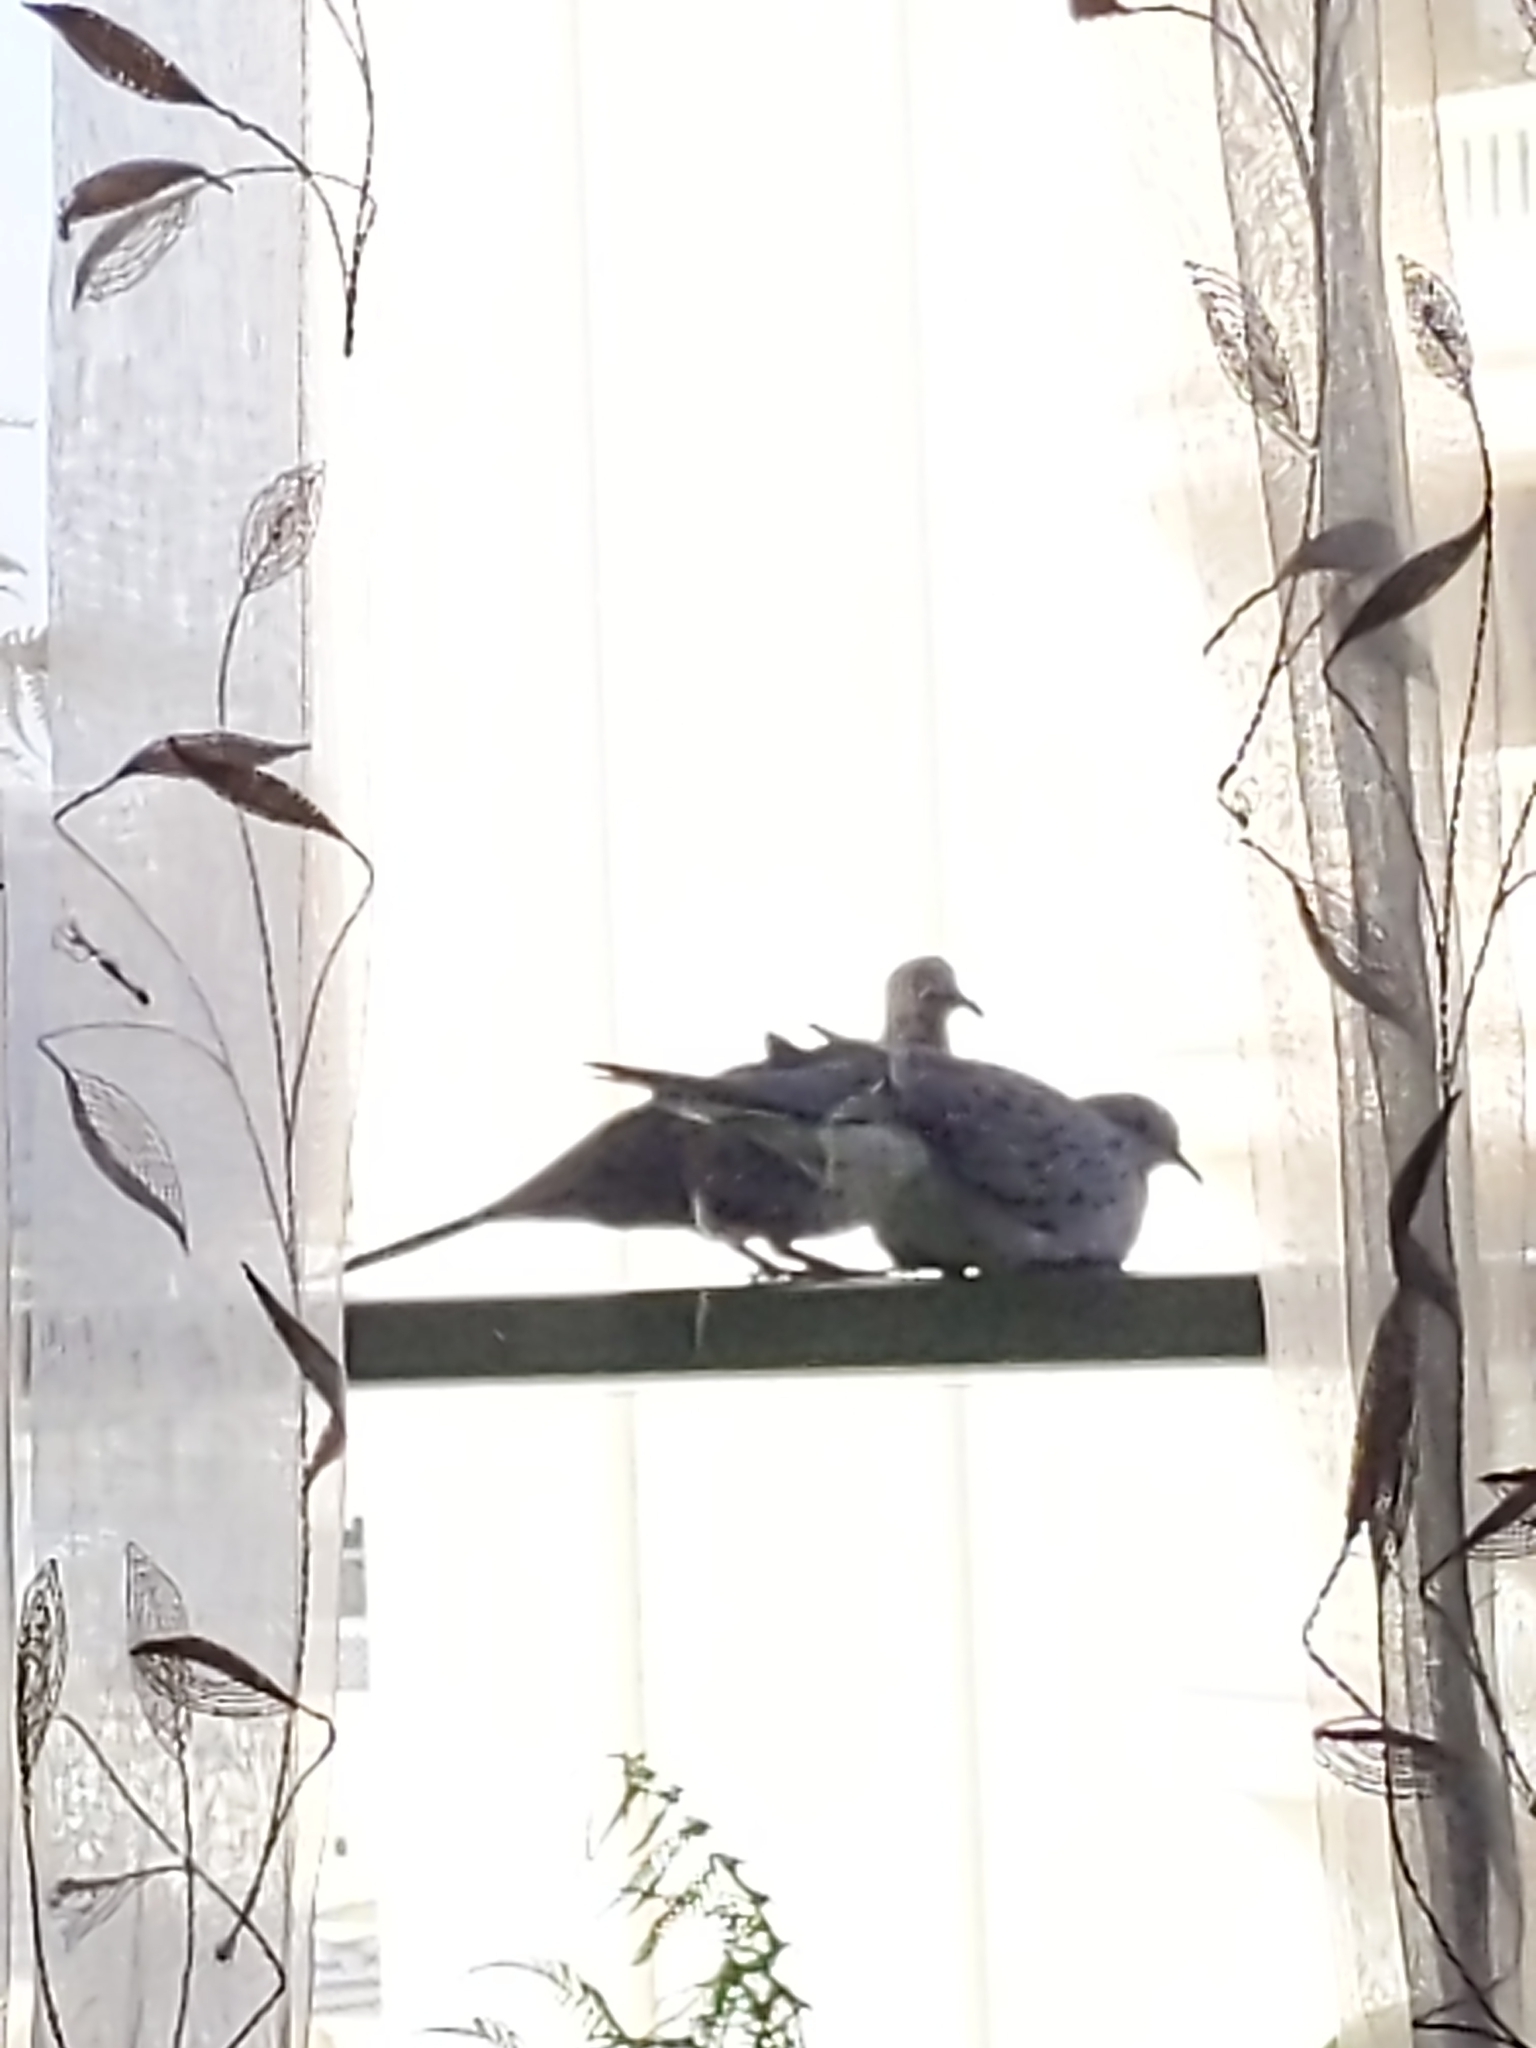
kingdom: Animalia
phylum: Chordata
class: Aves
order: Columbiformes
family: Columbidae
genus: Spilopelia
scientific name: Spilopelia chinensis
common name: Spotted dove
